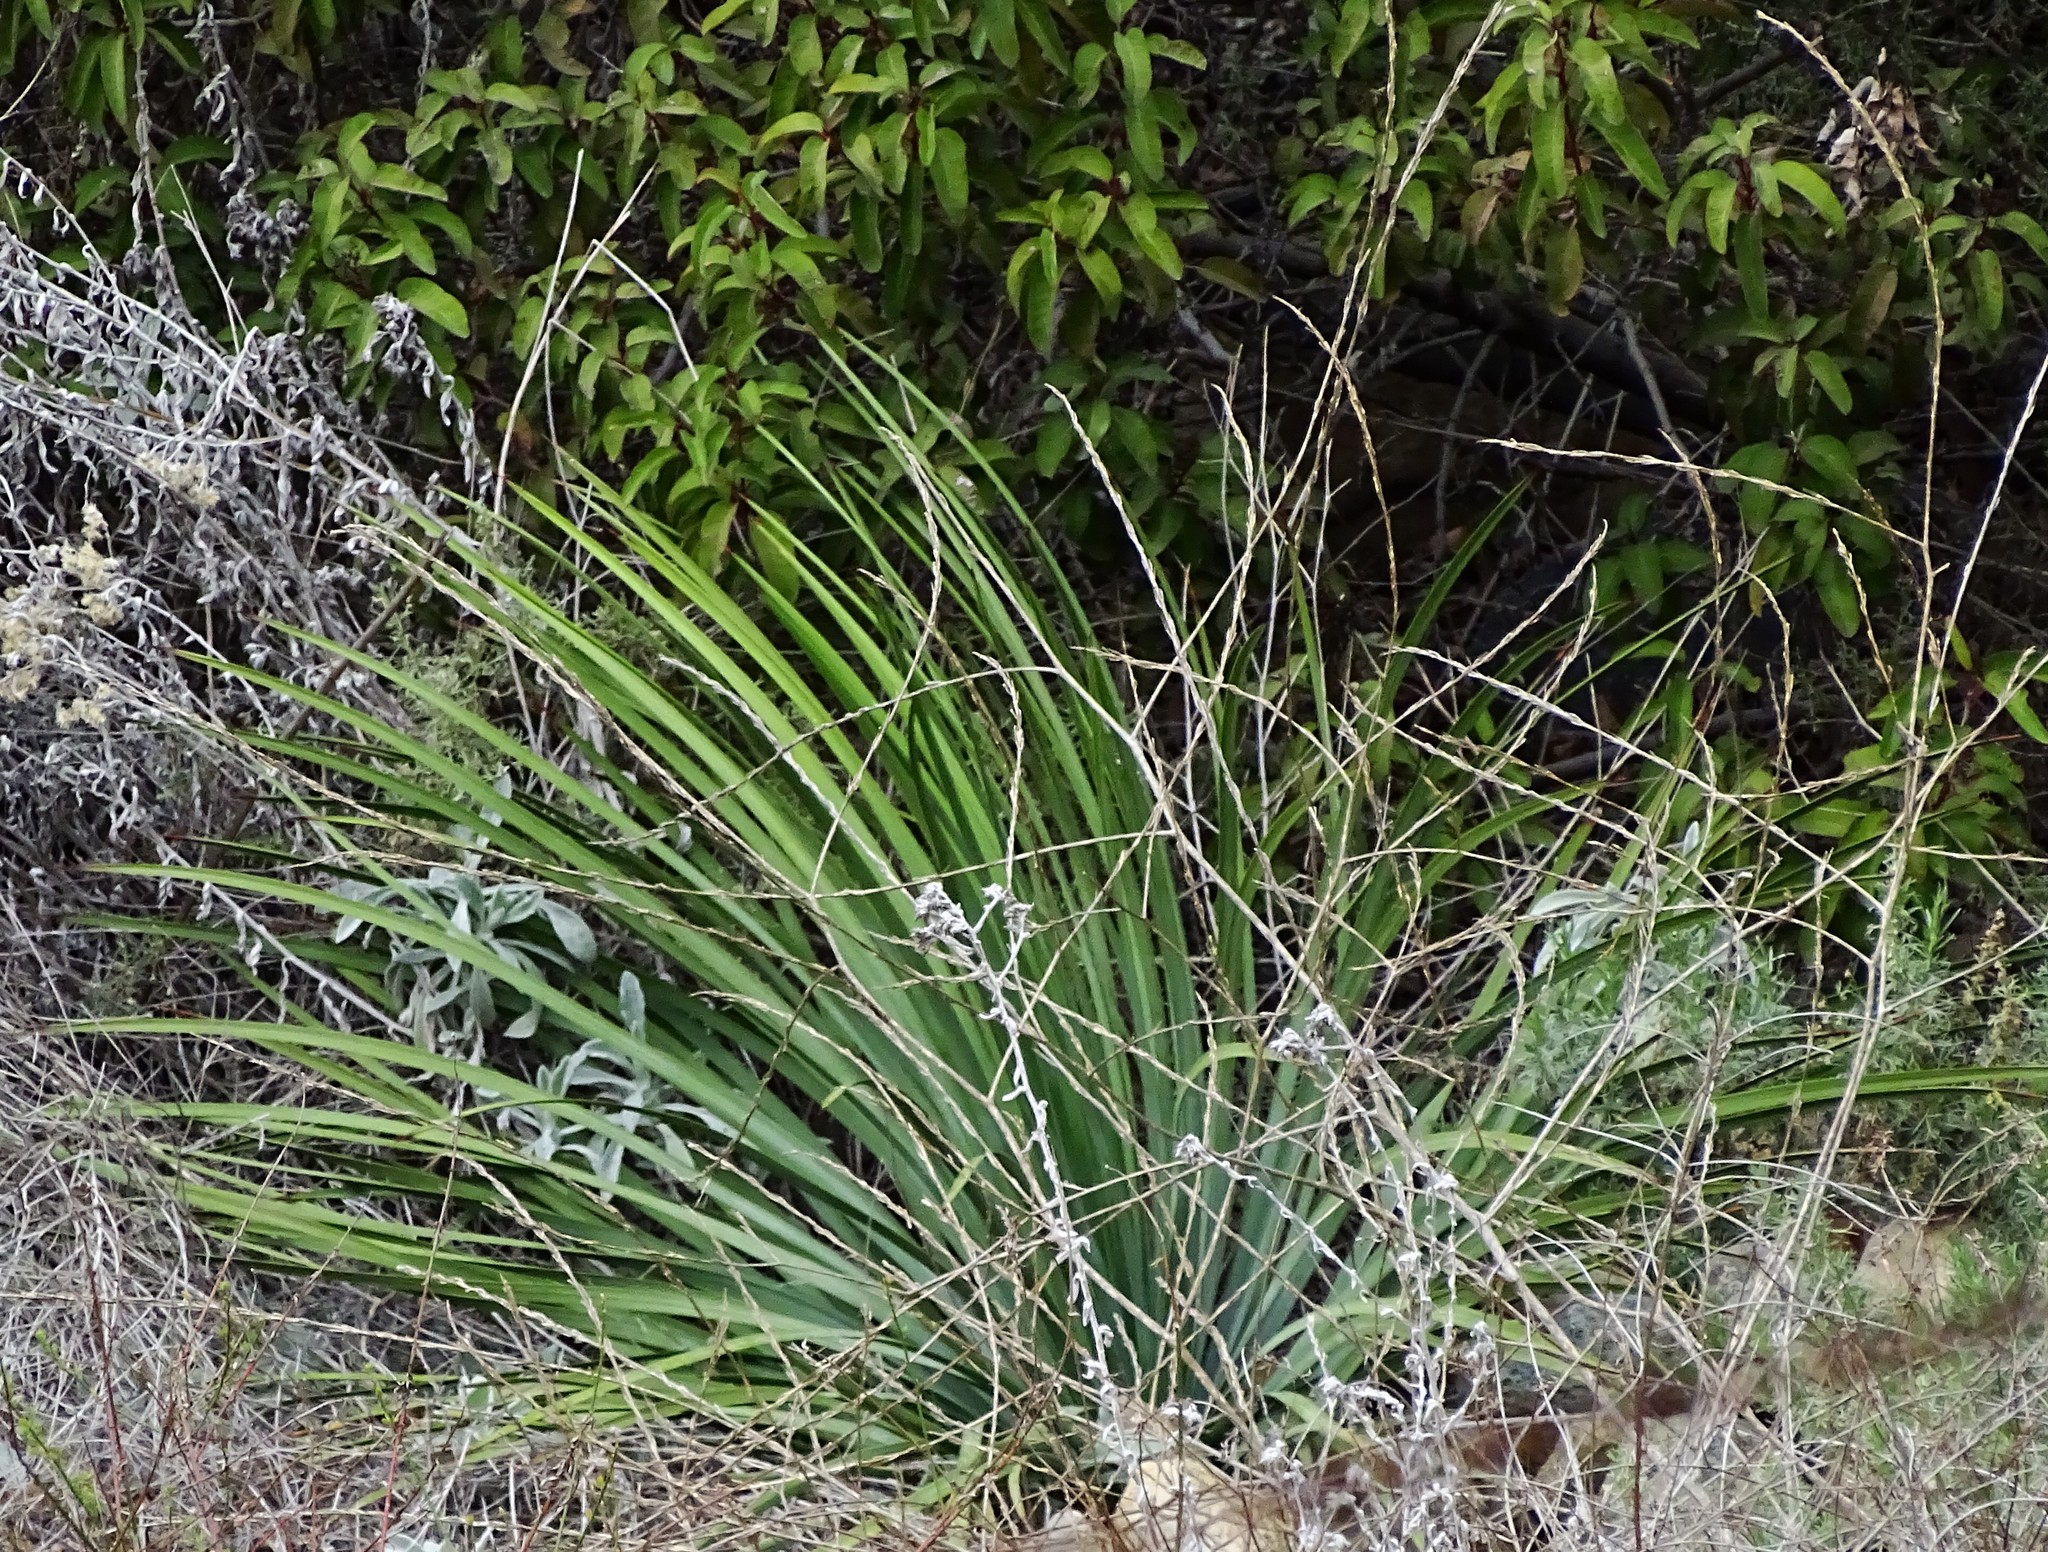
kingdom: Plantae
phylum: Tracheophyta
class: Liliopsida
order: Asparagales
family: Asparagaceae
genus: Hesperoyucca
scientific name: Hesperoyucca whipplei
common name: Our lord's-candle
